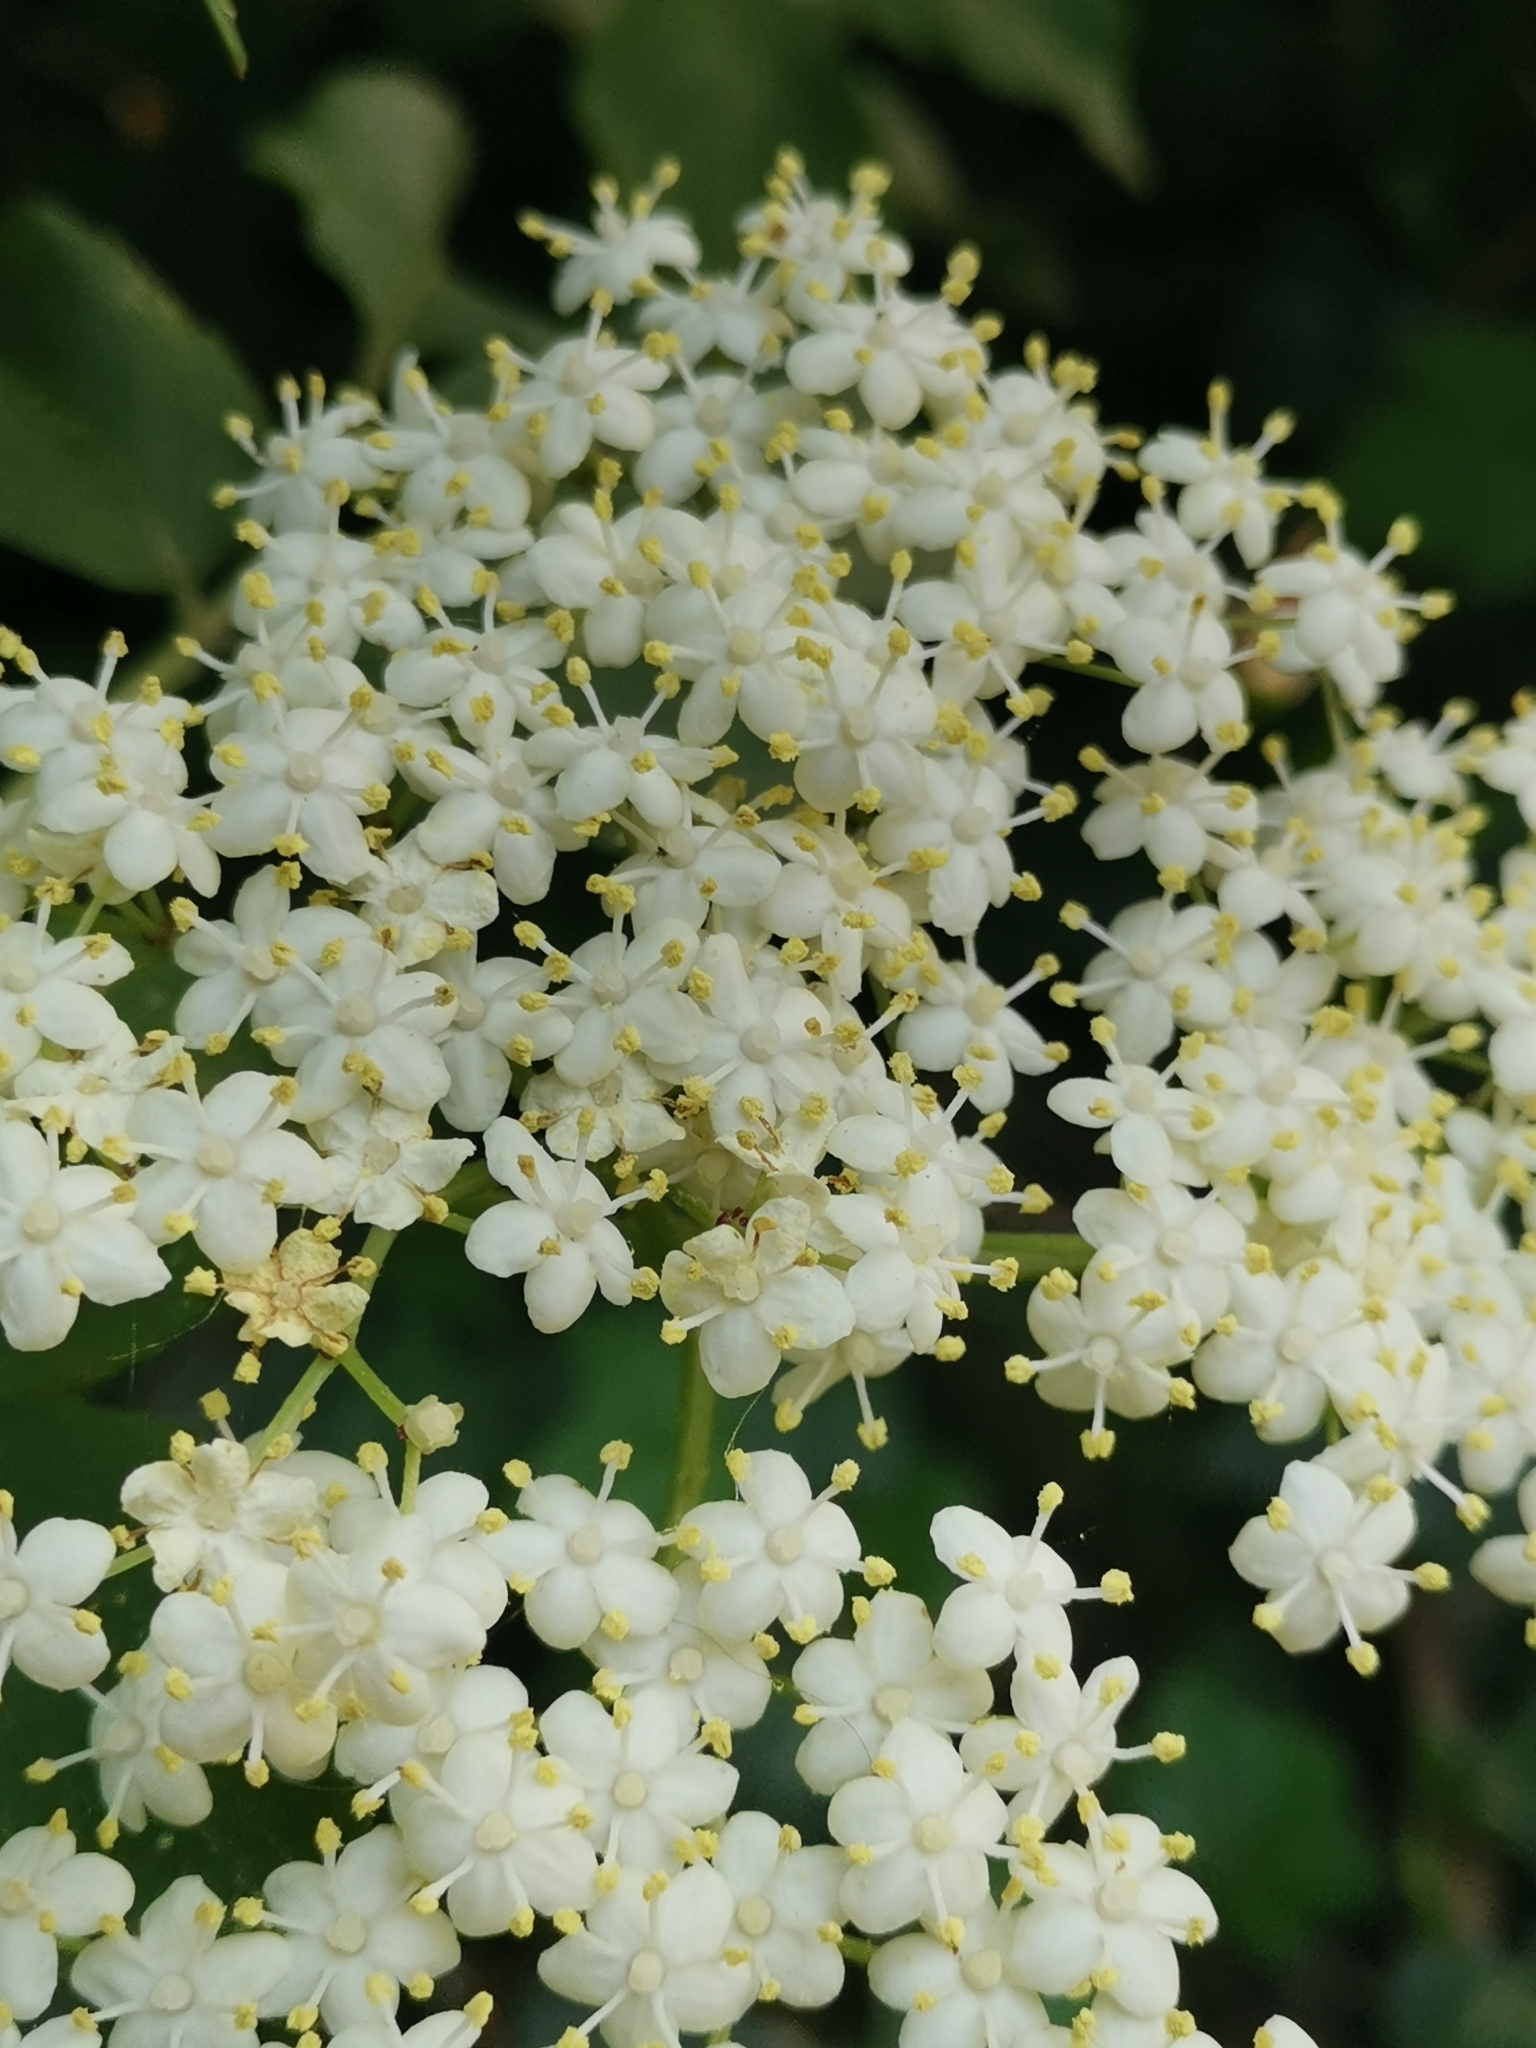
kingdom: Plantae
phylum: Tracheophyta
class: Magnoliopsida
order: Dipsacales
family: Viburnaceae
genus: Sambucus
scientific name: Sambucus nigra
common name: Elder
